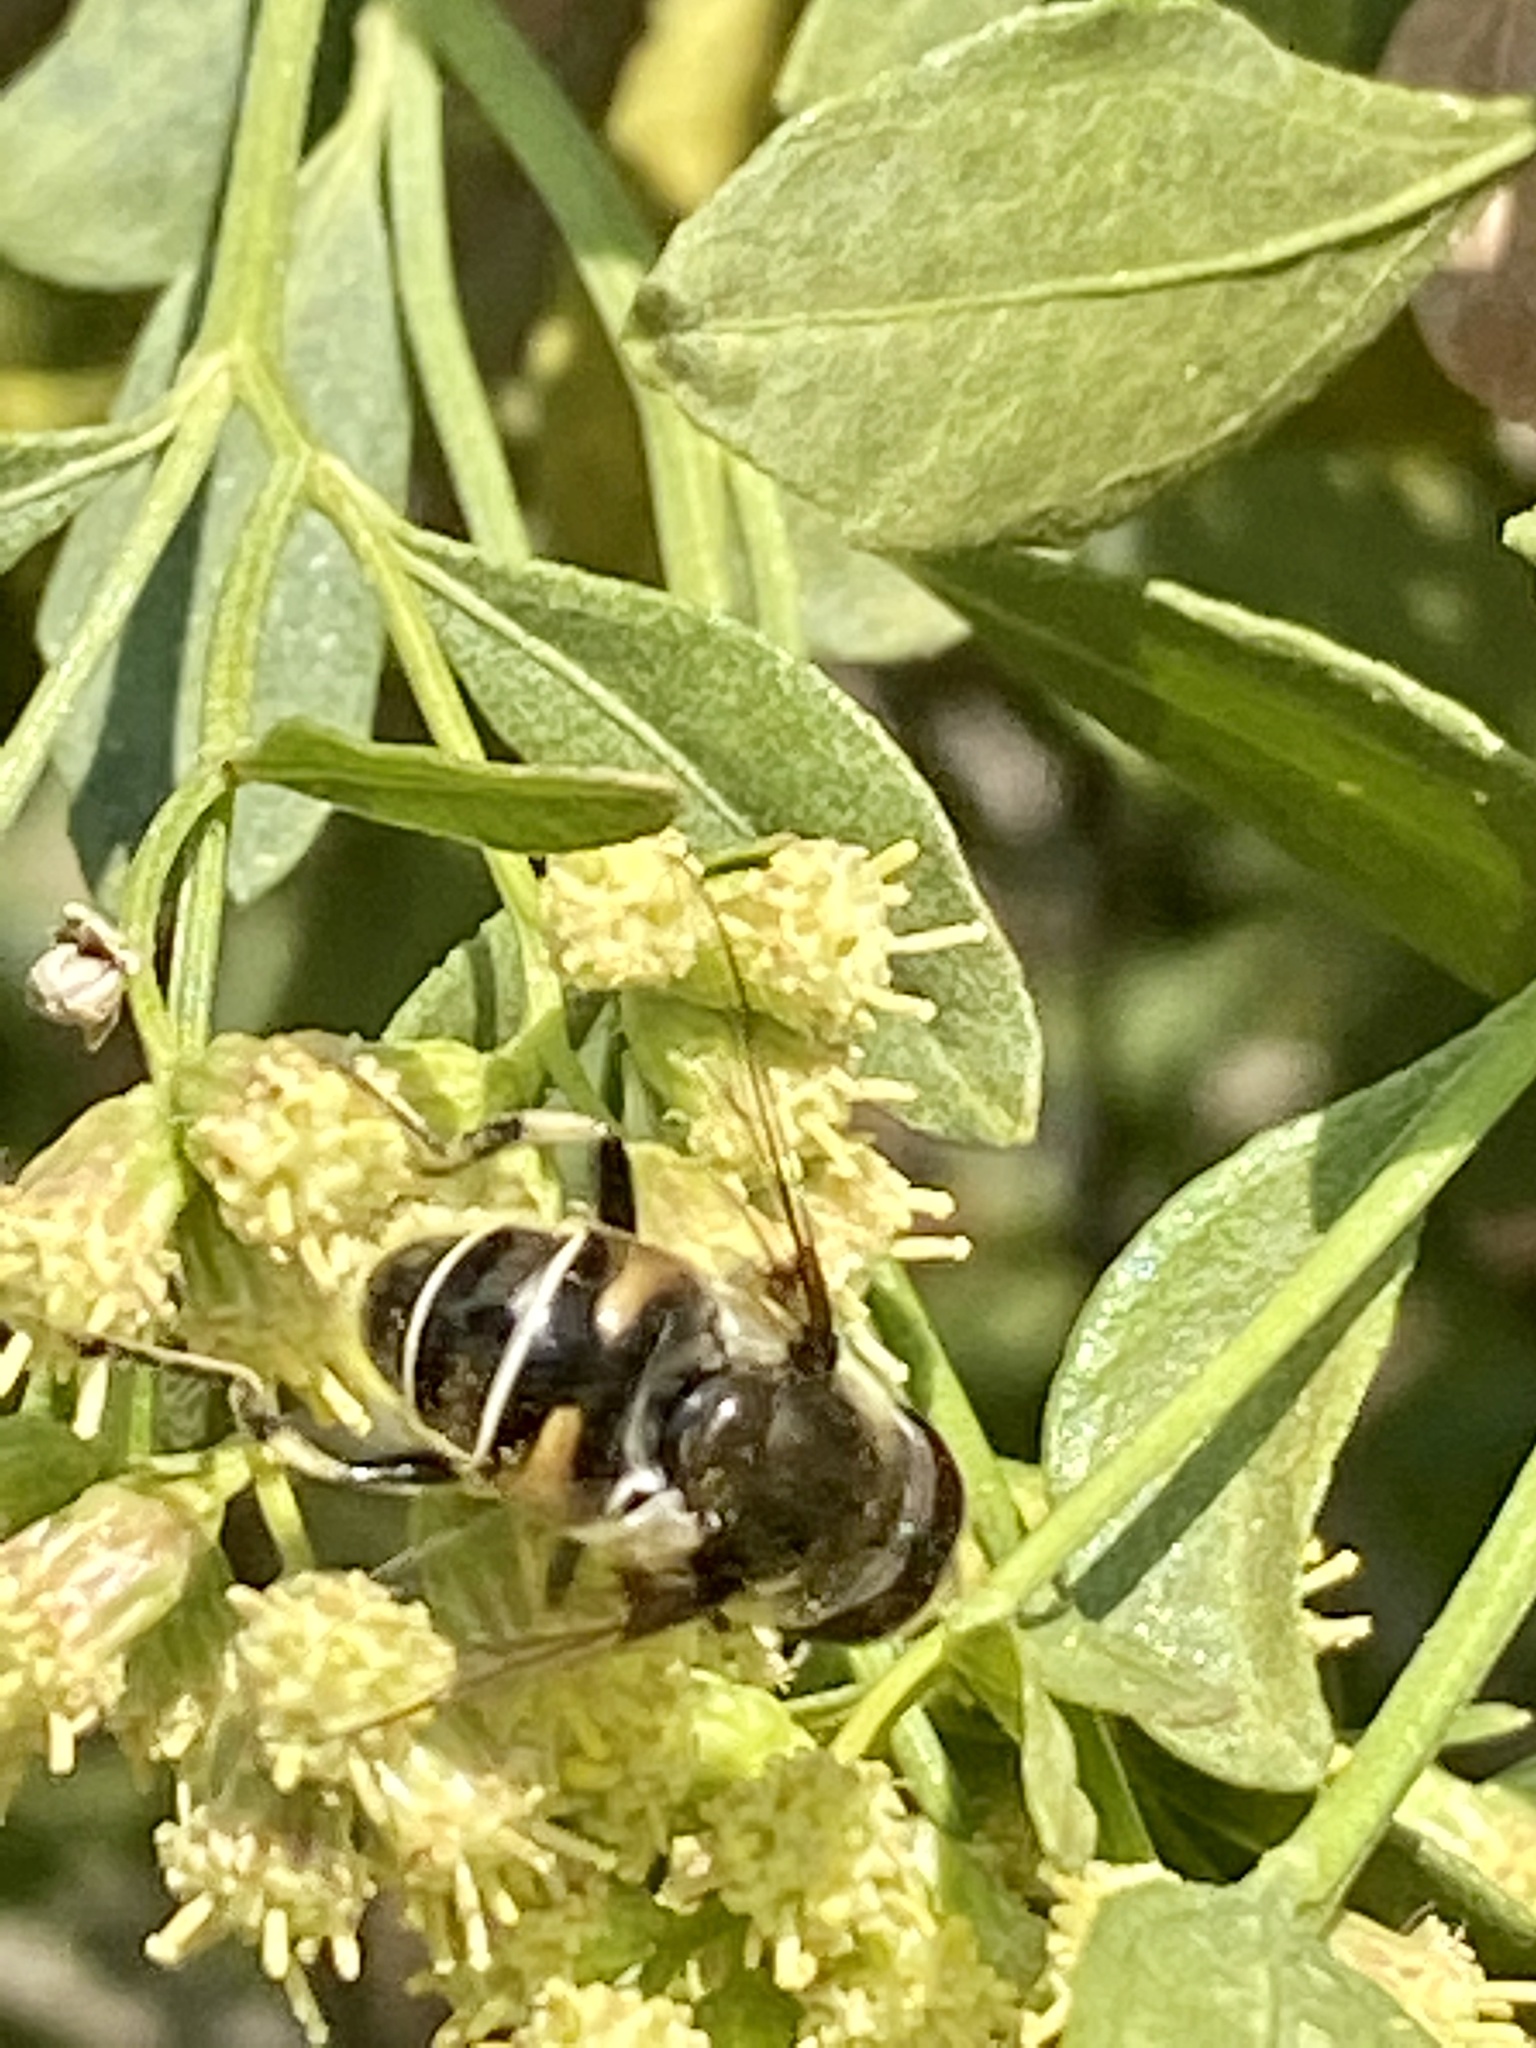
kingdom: Animalia
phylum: Arthropoda
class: Insecta
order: Diptera
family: Syrphidae
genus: Eristalis
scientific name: Eristalis dimidiata
